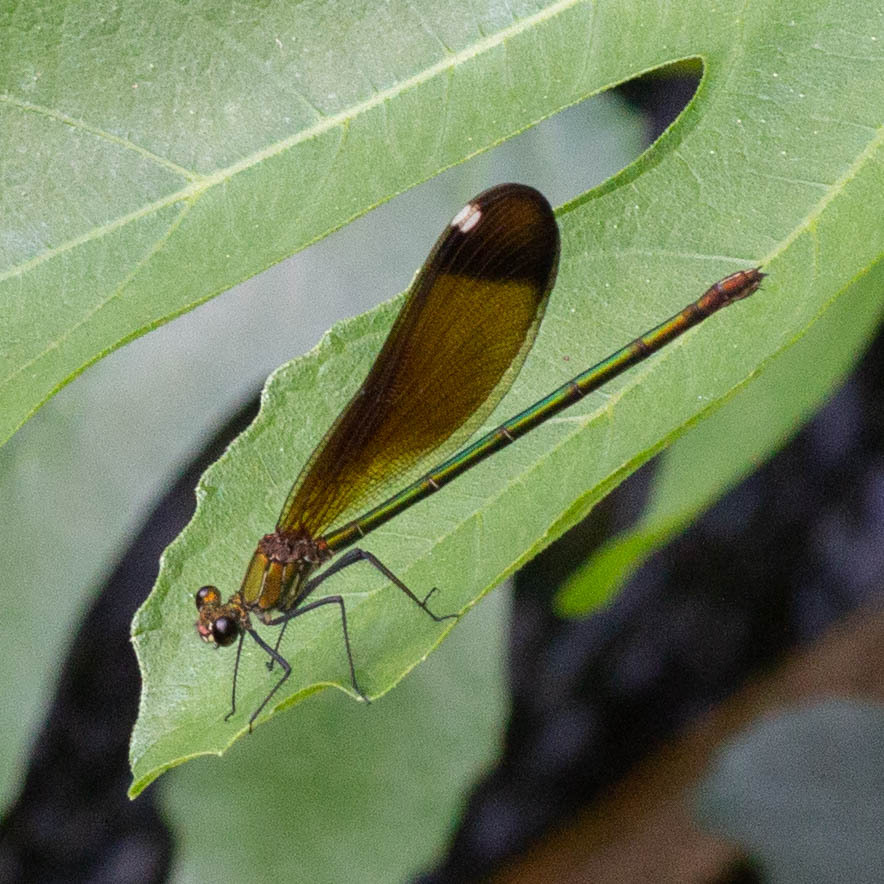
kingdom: Animalia
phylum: Arthropoda
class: Insecta
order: Odonata
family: Calopterygidae
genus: Calopteryx
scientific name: Calopteryx haemorrhoidalis
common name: Copper demoiselle
